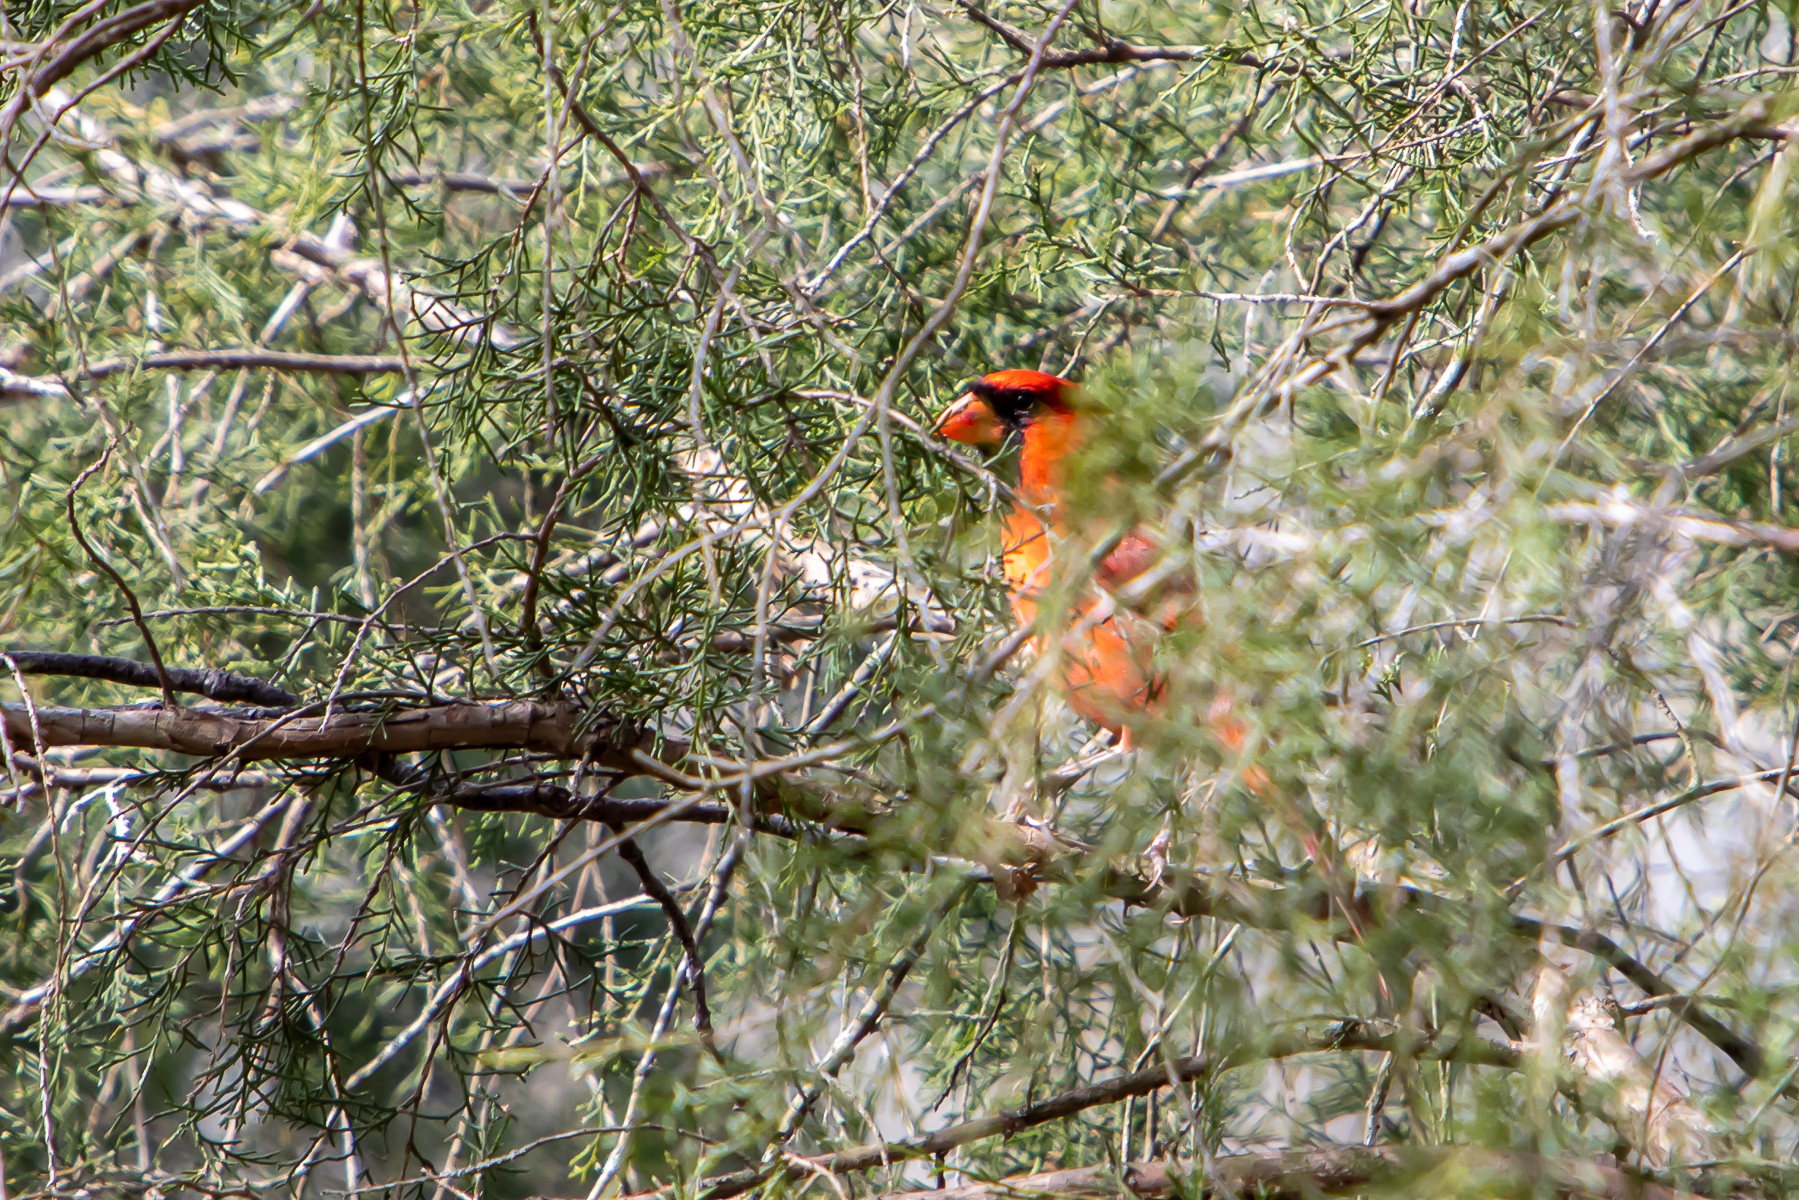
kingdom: Animalia
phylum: Chordata
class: Aves
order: Passeriformes
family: Cardinalidae
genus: Cardinalis
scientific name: Cardinalis cardinalis
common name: Northern cardinal
